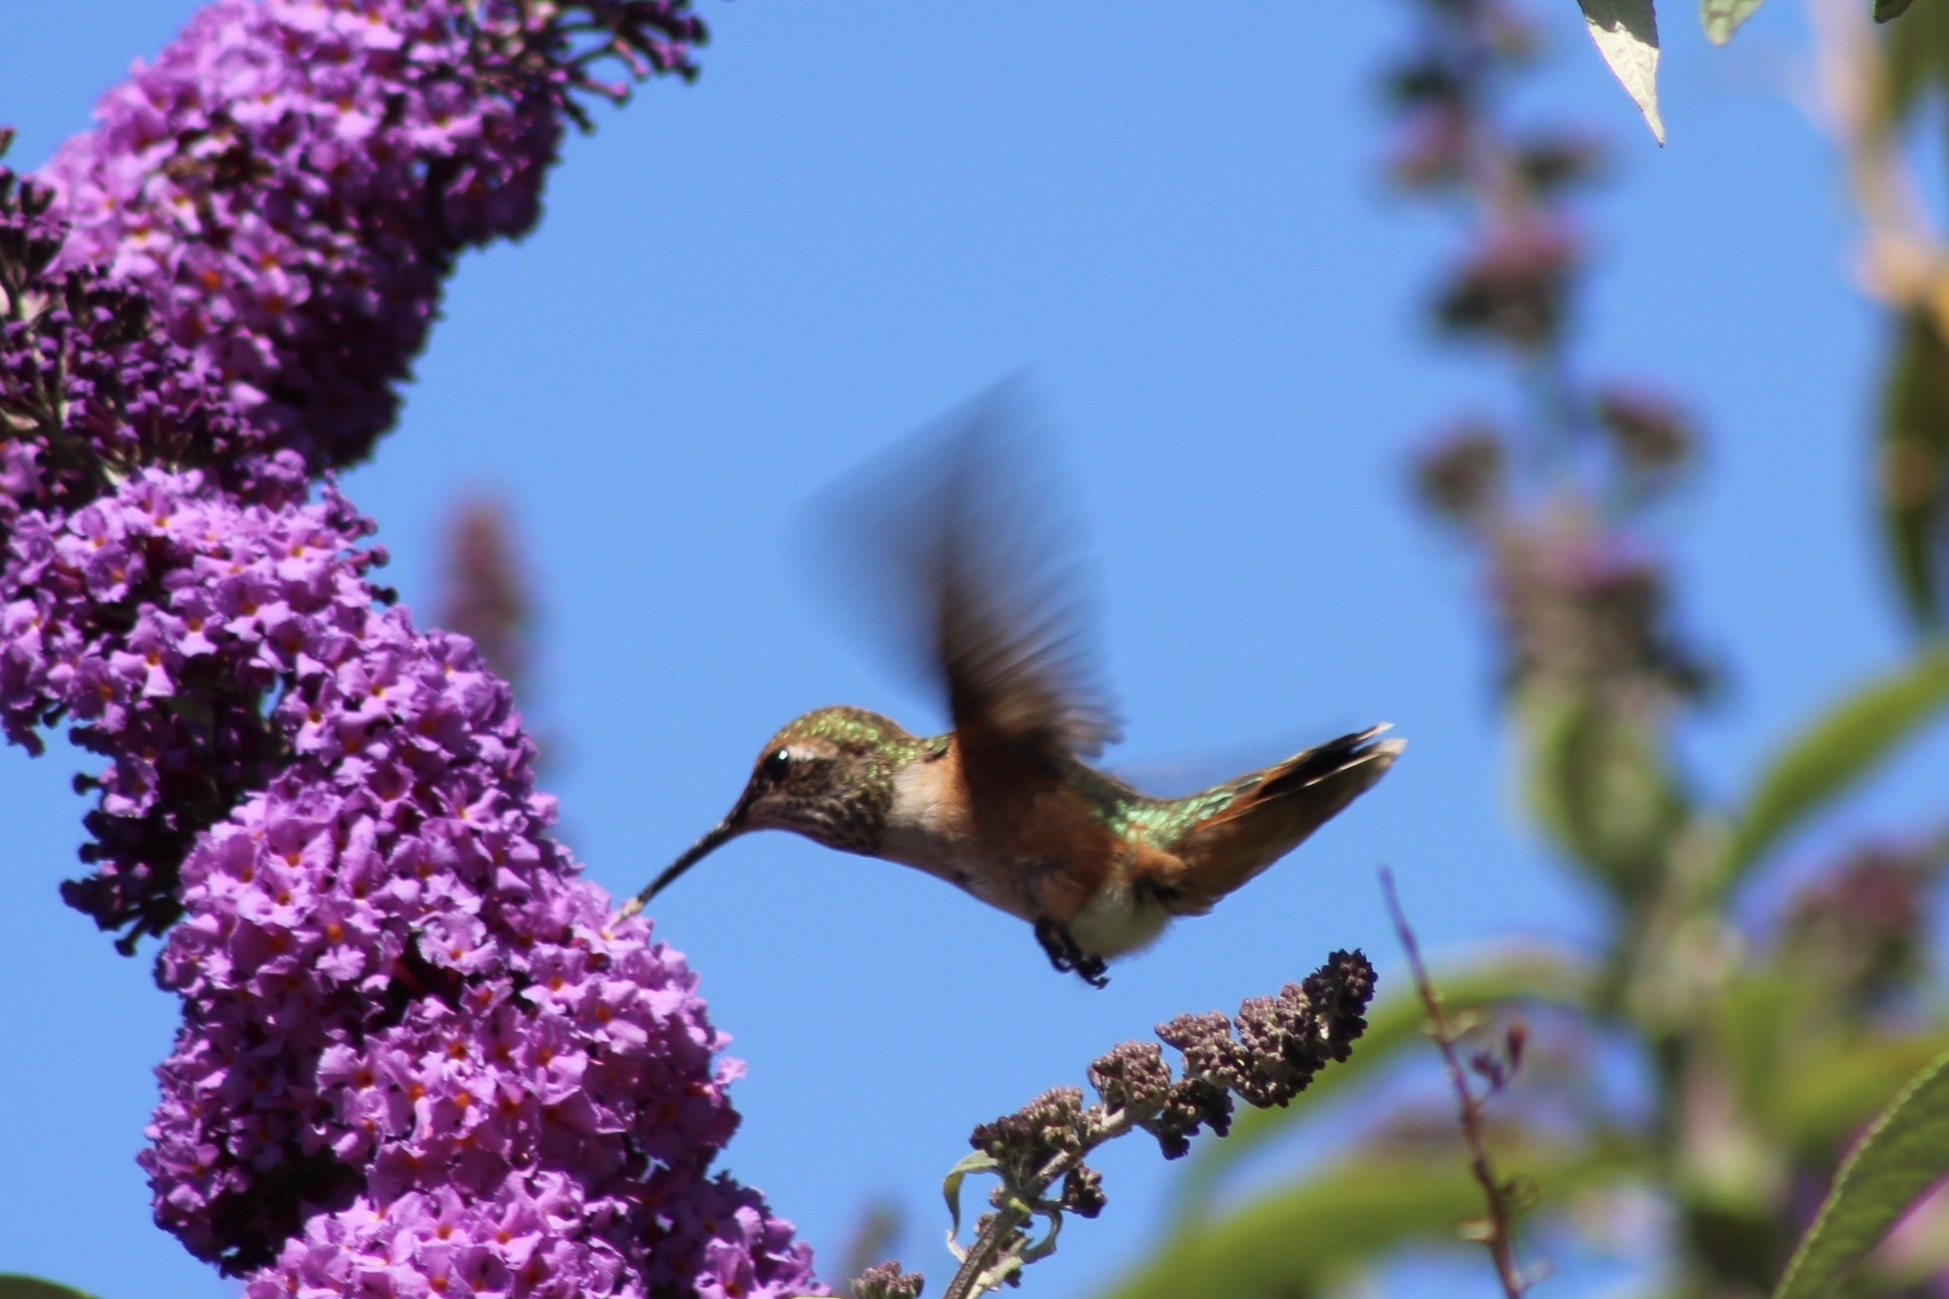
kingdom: Animalia
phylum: Chordata
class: Aves
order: Apodiformes
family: Trochilidae
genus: Selasphorus
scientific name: Selasphorus rufus
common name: Rufous hummingbird
